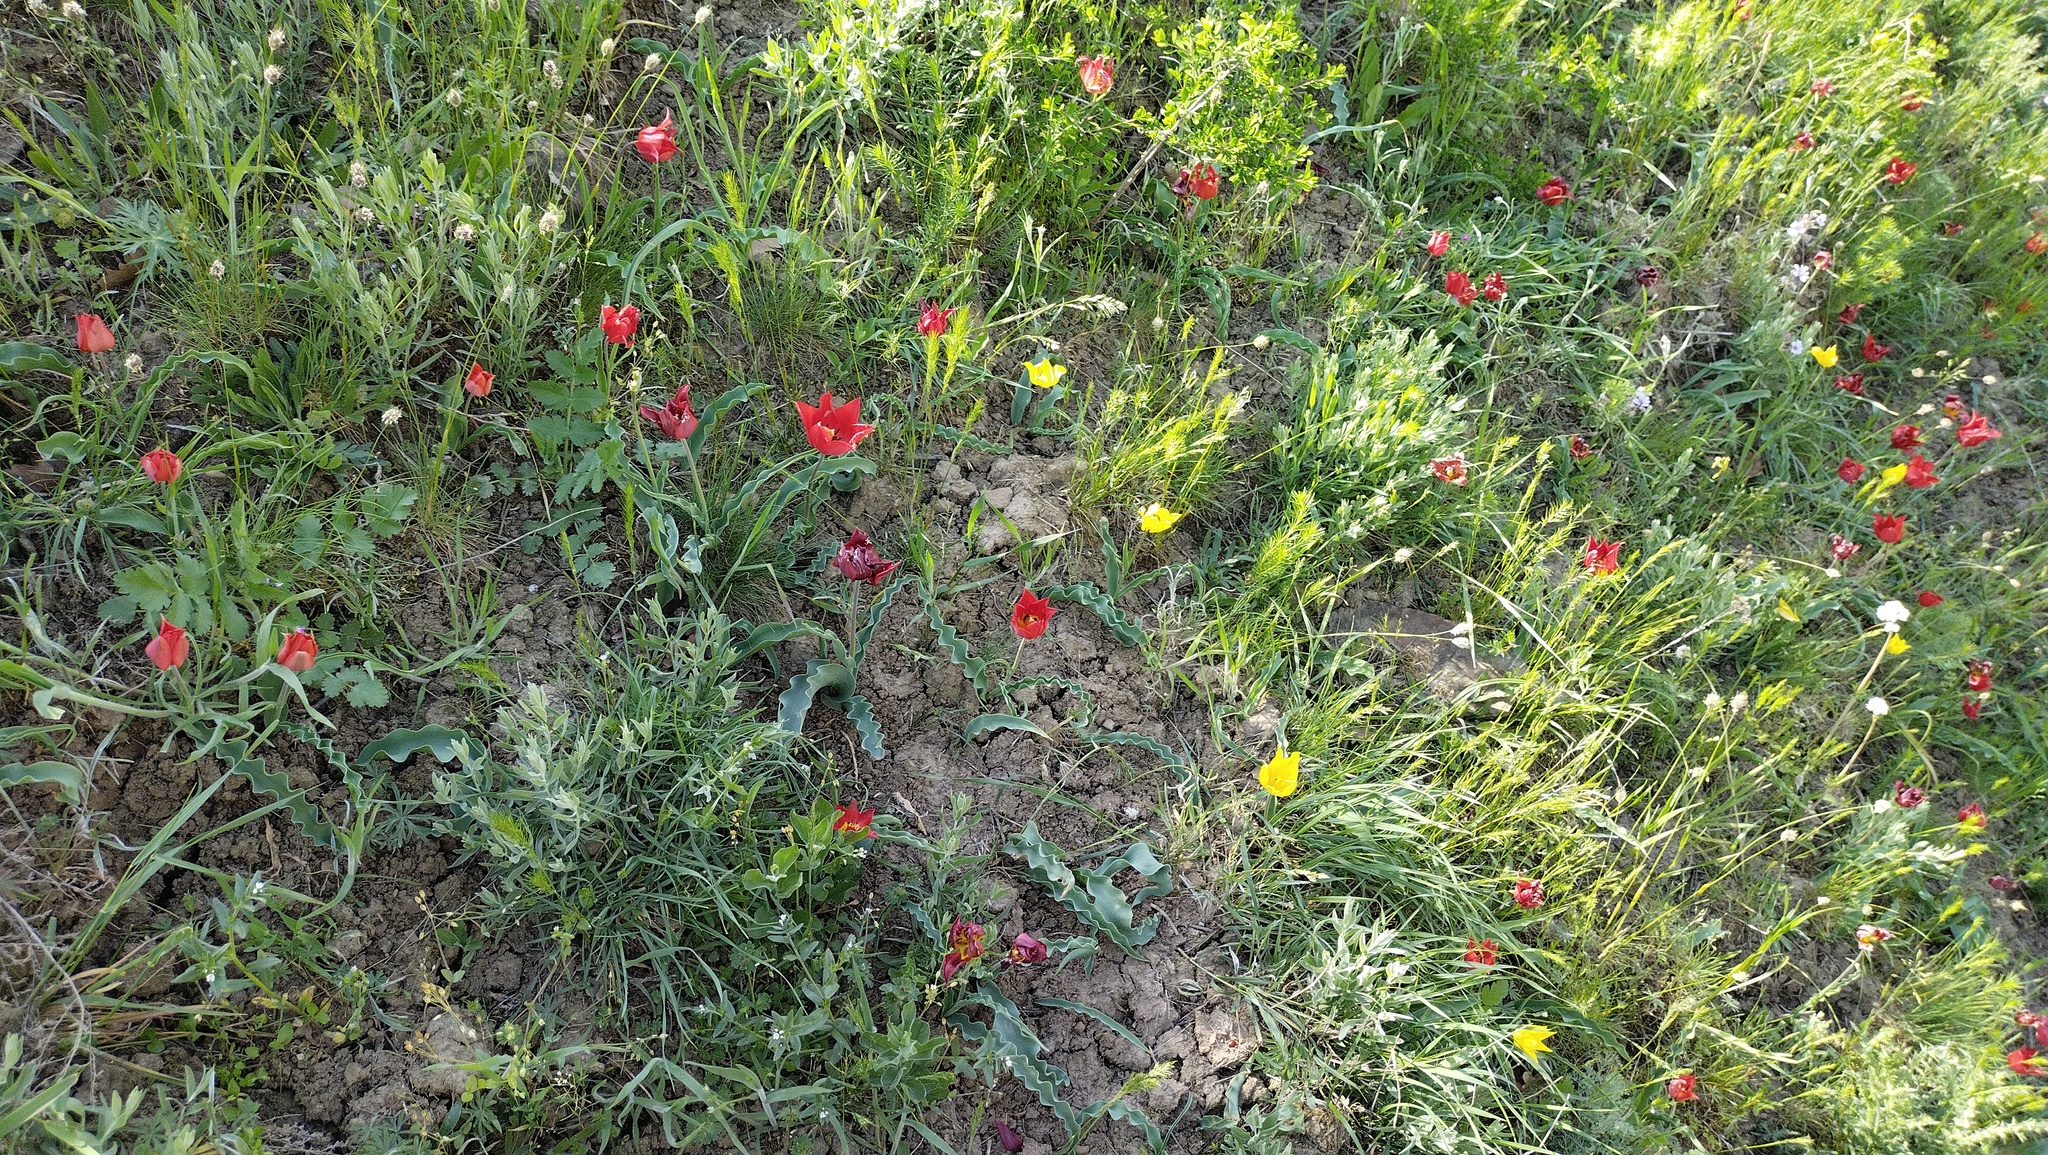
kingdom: Plantae
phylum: Tracheophyta
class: Liliopsida
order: Liliales
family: Liliaceae
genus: Tulipa
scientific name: Tulipa suaveolens
